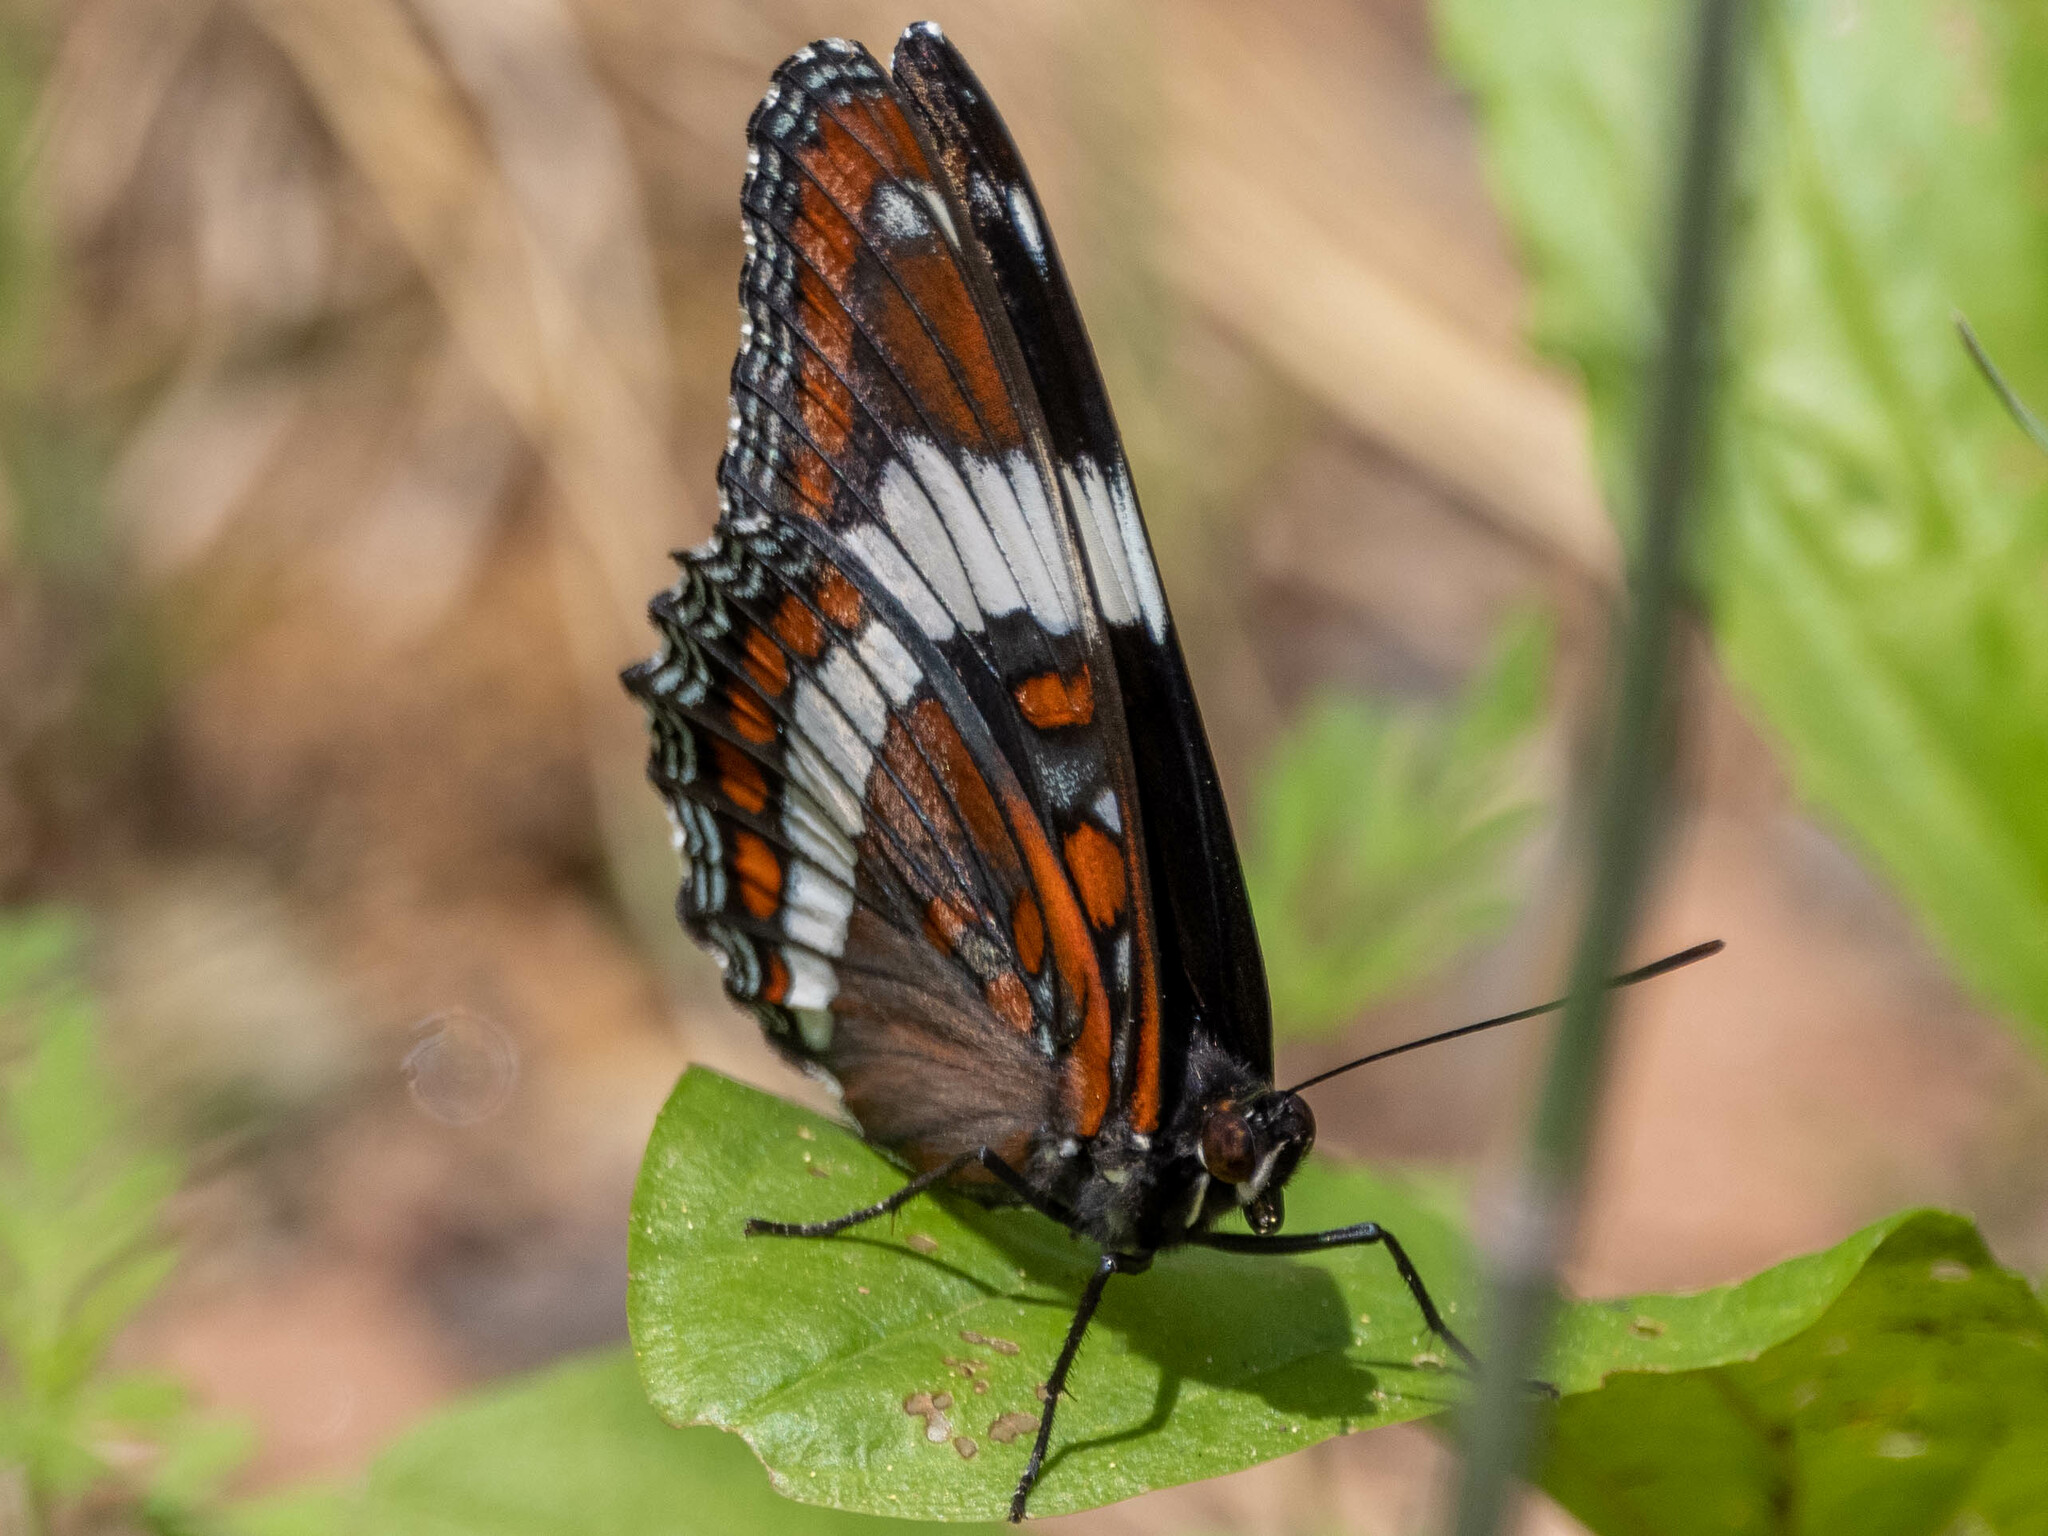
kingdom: Animalia
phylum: Arthropoda
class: Insecta
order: Lepidoptera
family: Nymphalidae
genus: Limenitis
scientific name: Limenitis arthemis
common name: Red-spotted admiral
